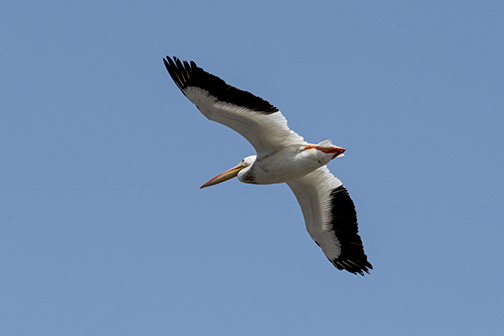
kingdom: Animalia
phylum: Chordata
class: Aves
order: Pelecaniformes
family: Pelecanidae
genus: Pelecanus
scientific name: Pelecanus erythrorhynchos
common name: American white pelican
